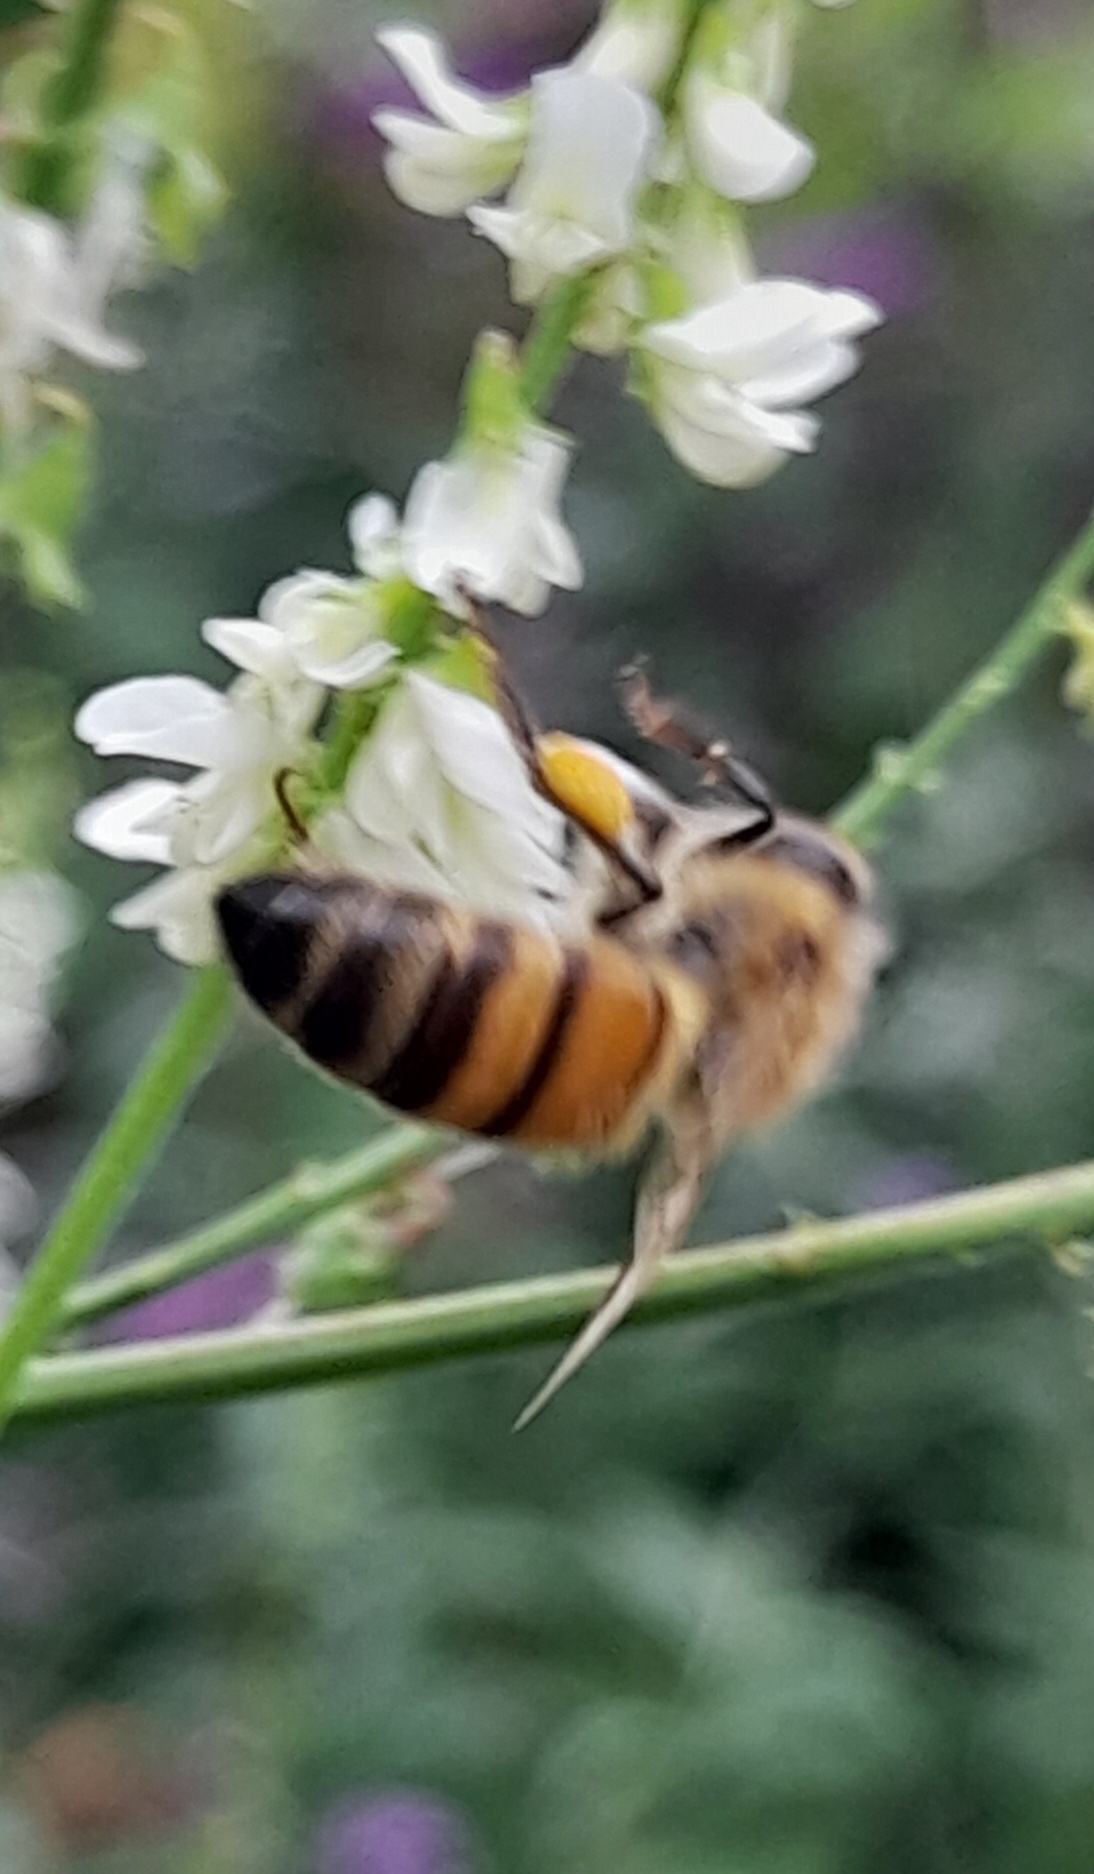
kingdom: Animalia
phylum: Arthropoda
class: Insecta
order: Hymenoptera
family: Apidae
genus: Apis
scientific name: Apis mellifera
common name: Honey bee
